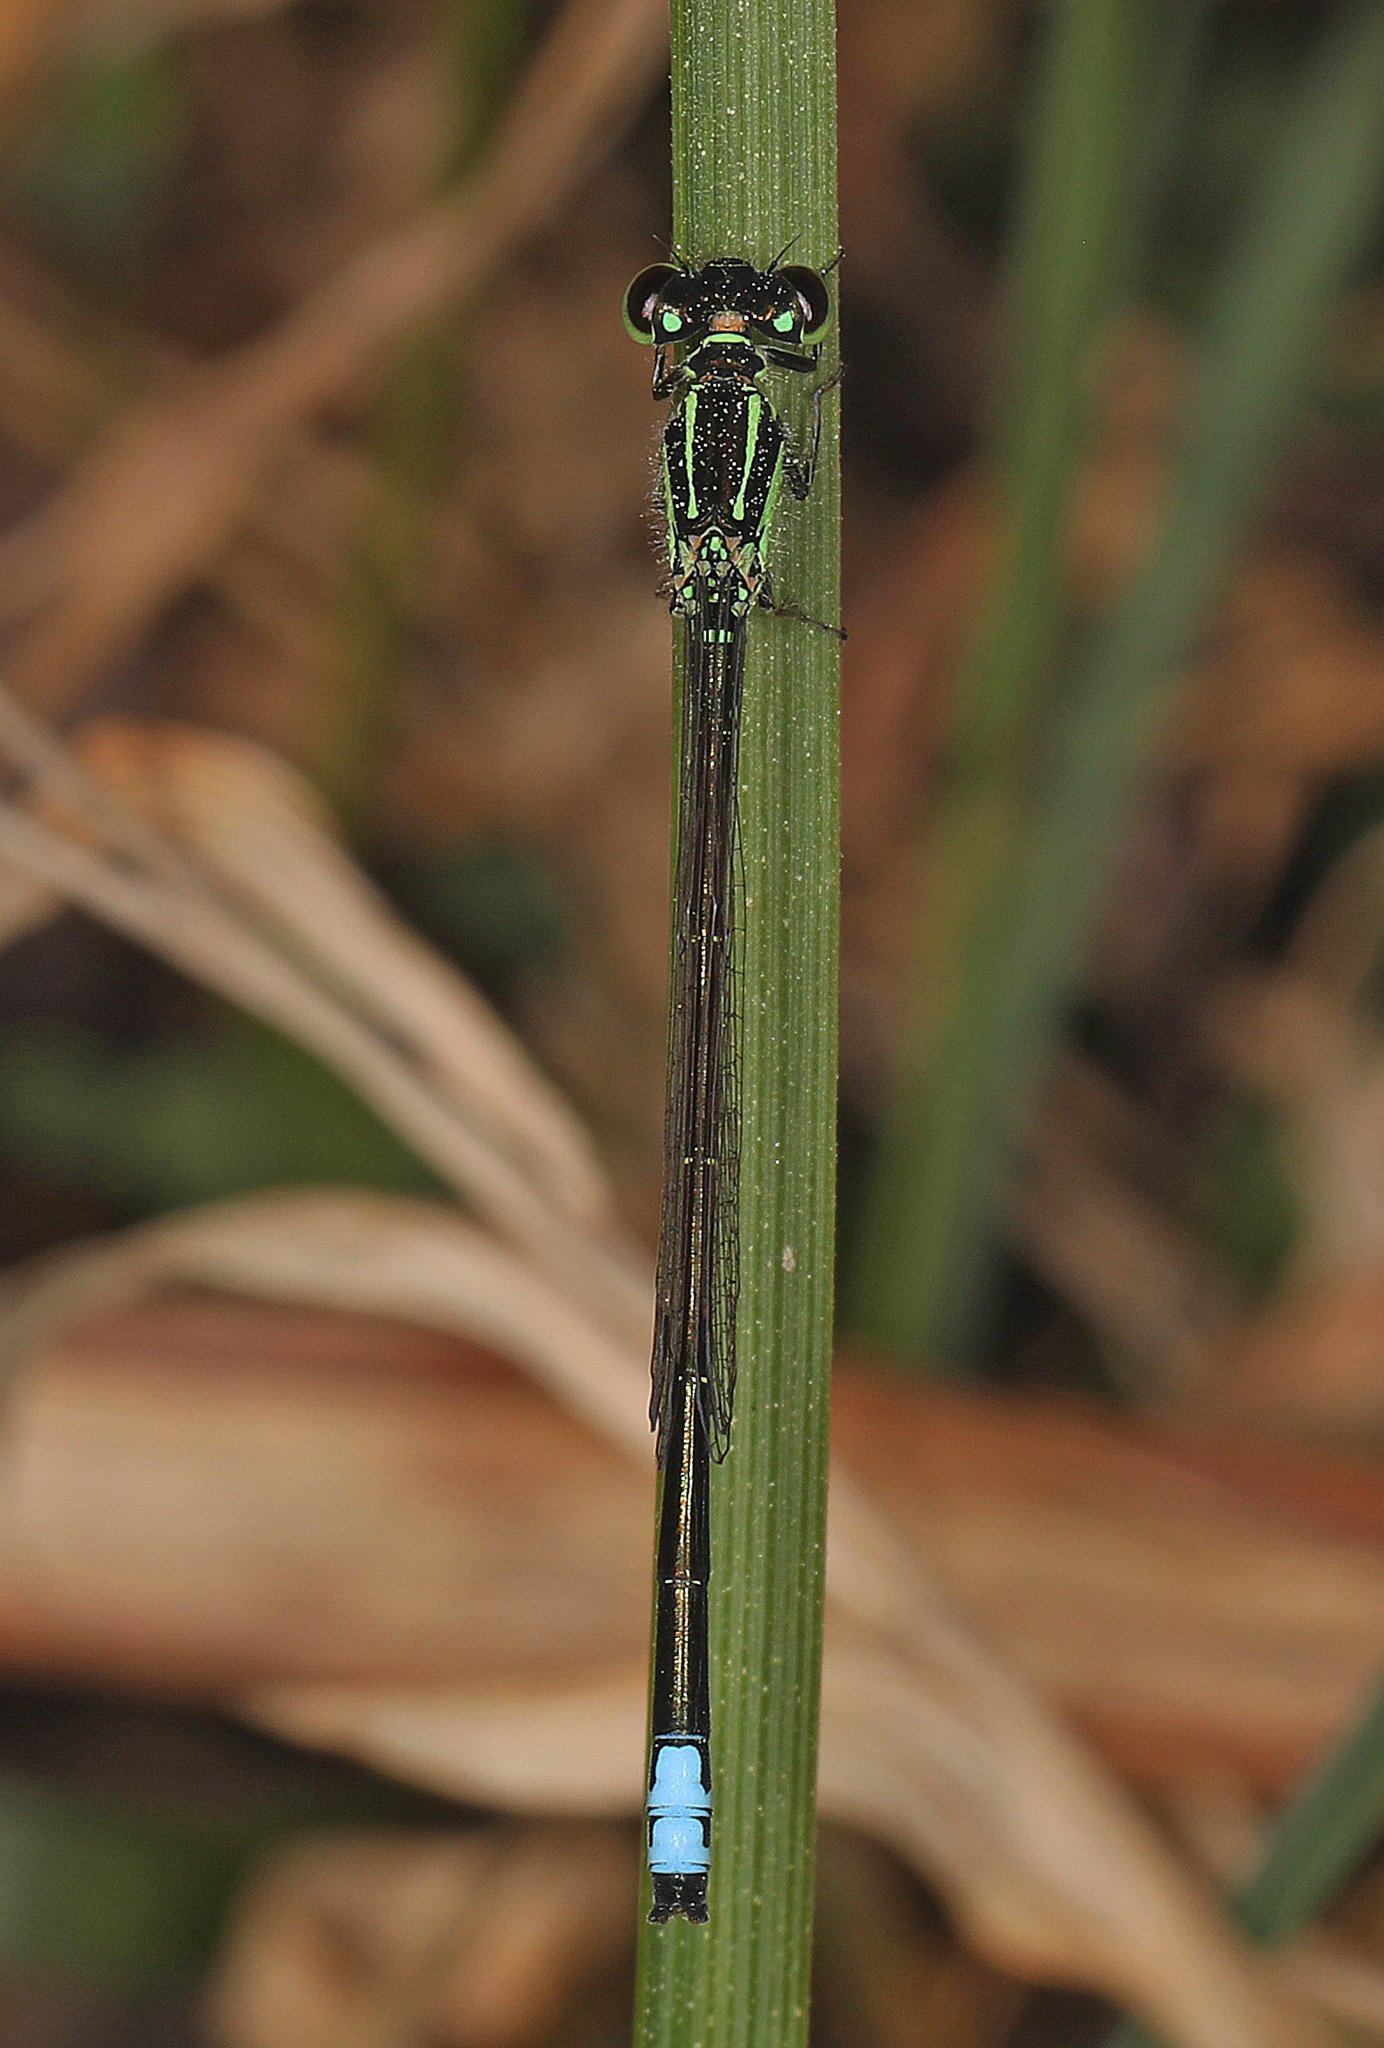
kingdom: Animalia
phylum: Arthropoda
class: Insecta
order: Odonata
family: Coenagrionidae
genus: Ischnura
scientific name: Ischnura verticalis
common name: Eastern forktail
